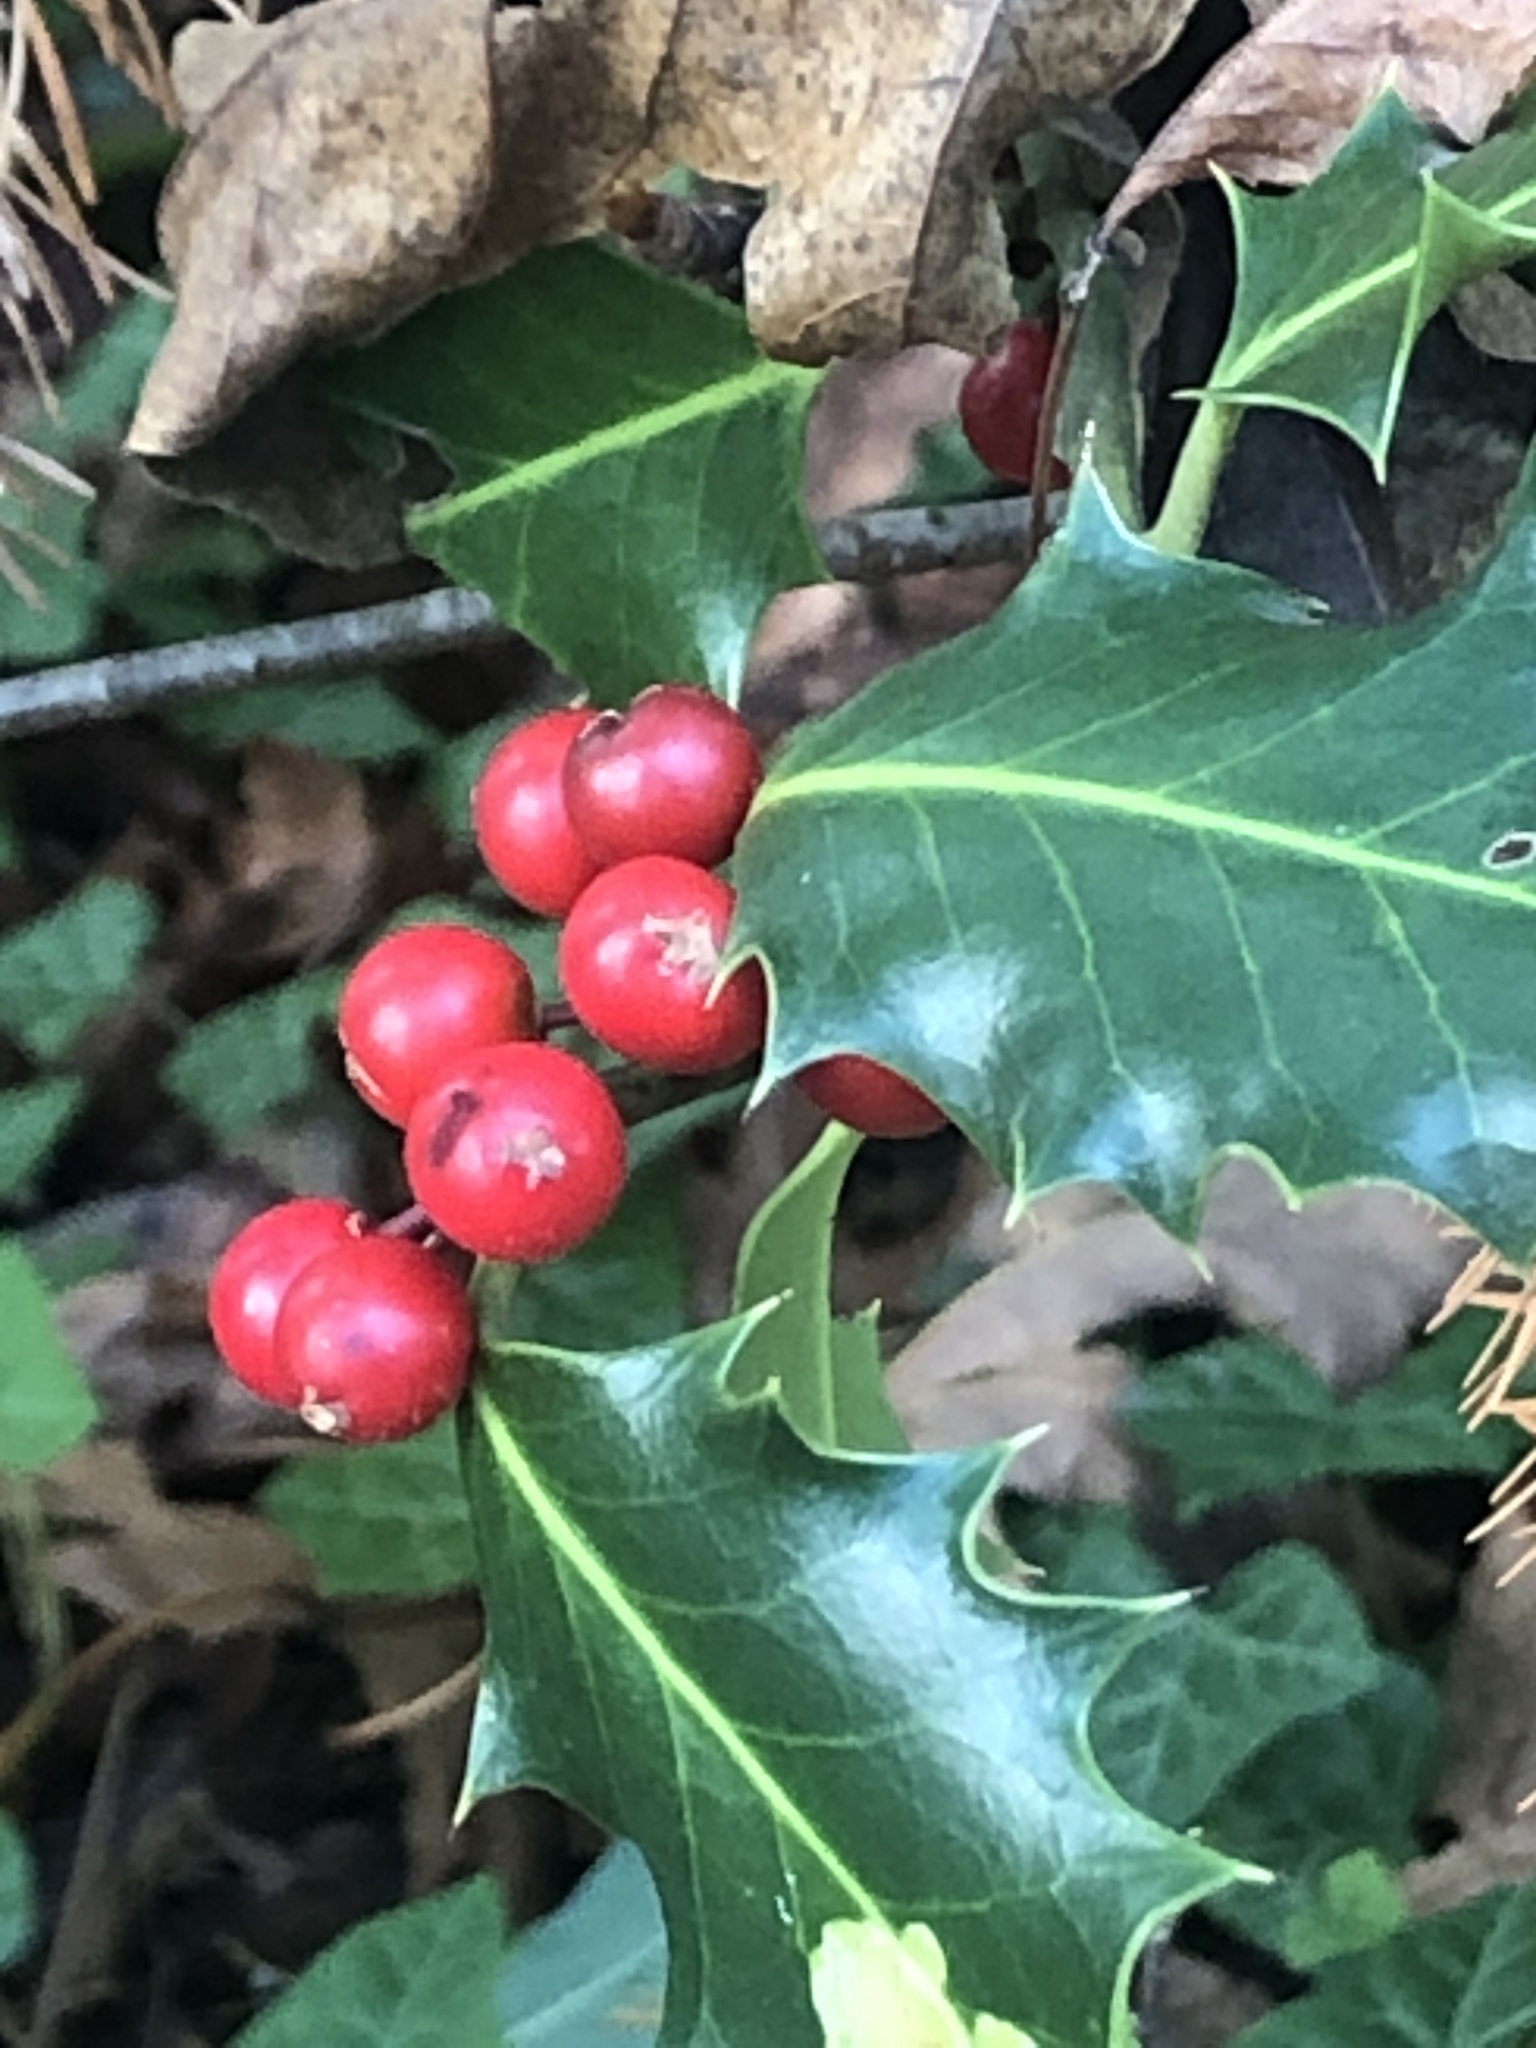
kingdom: Plantae
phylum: Tracheophyta
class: Magnoliopsida
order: Aquifoliales
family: Aquifoliaceae
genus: Ilex
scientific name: Ilex aquifolium
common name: English holly
